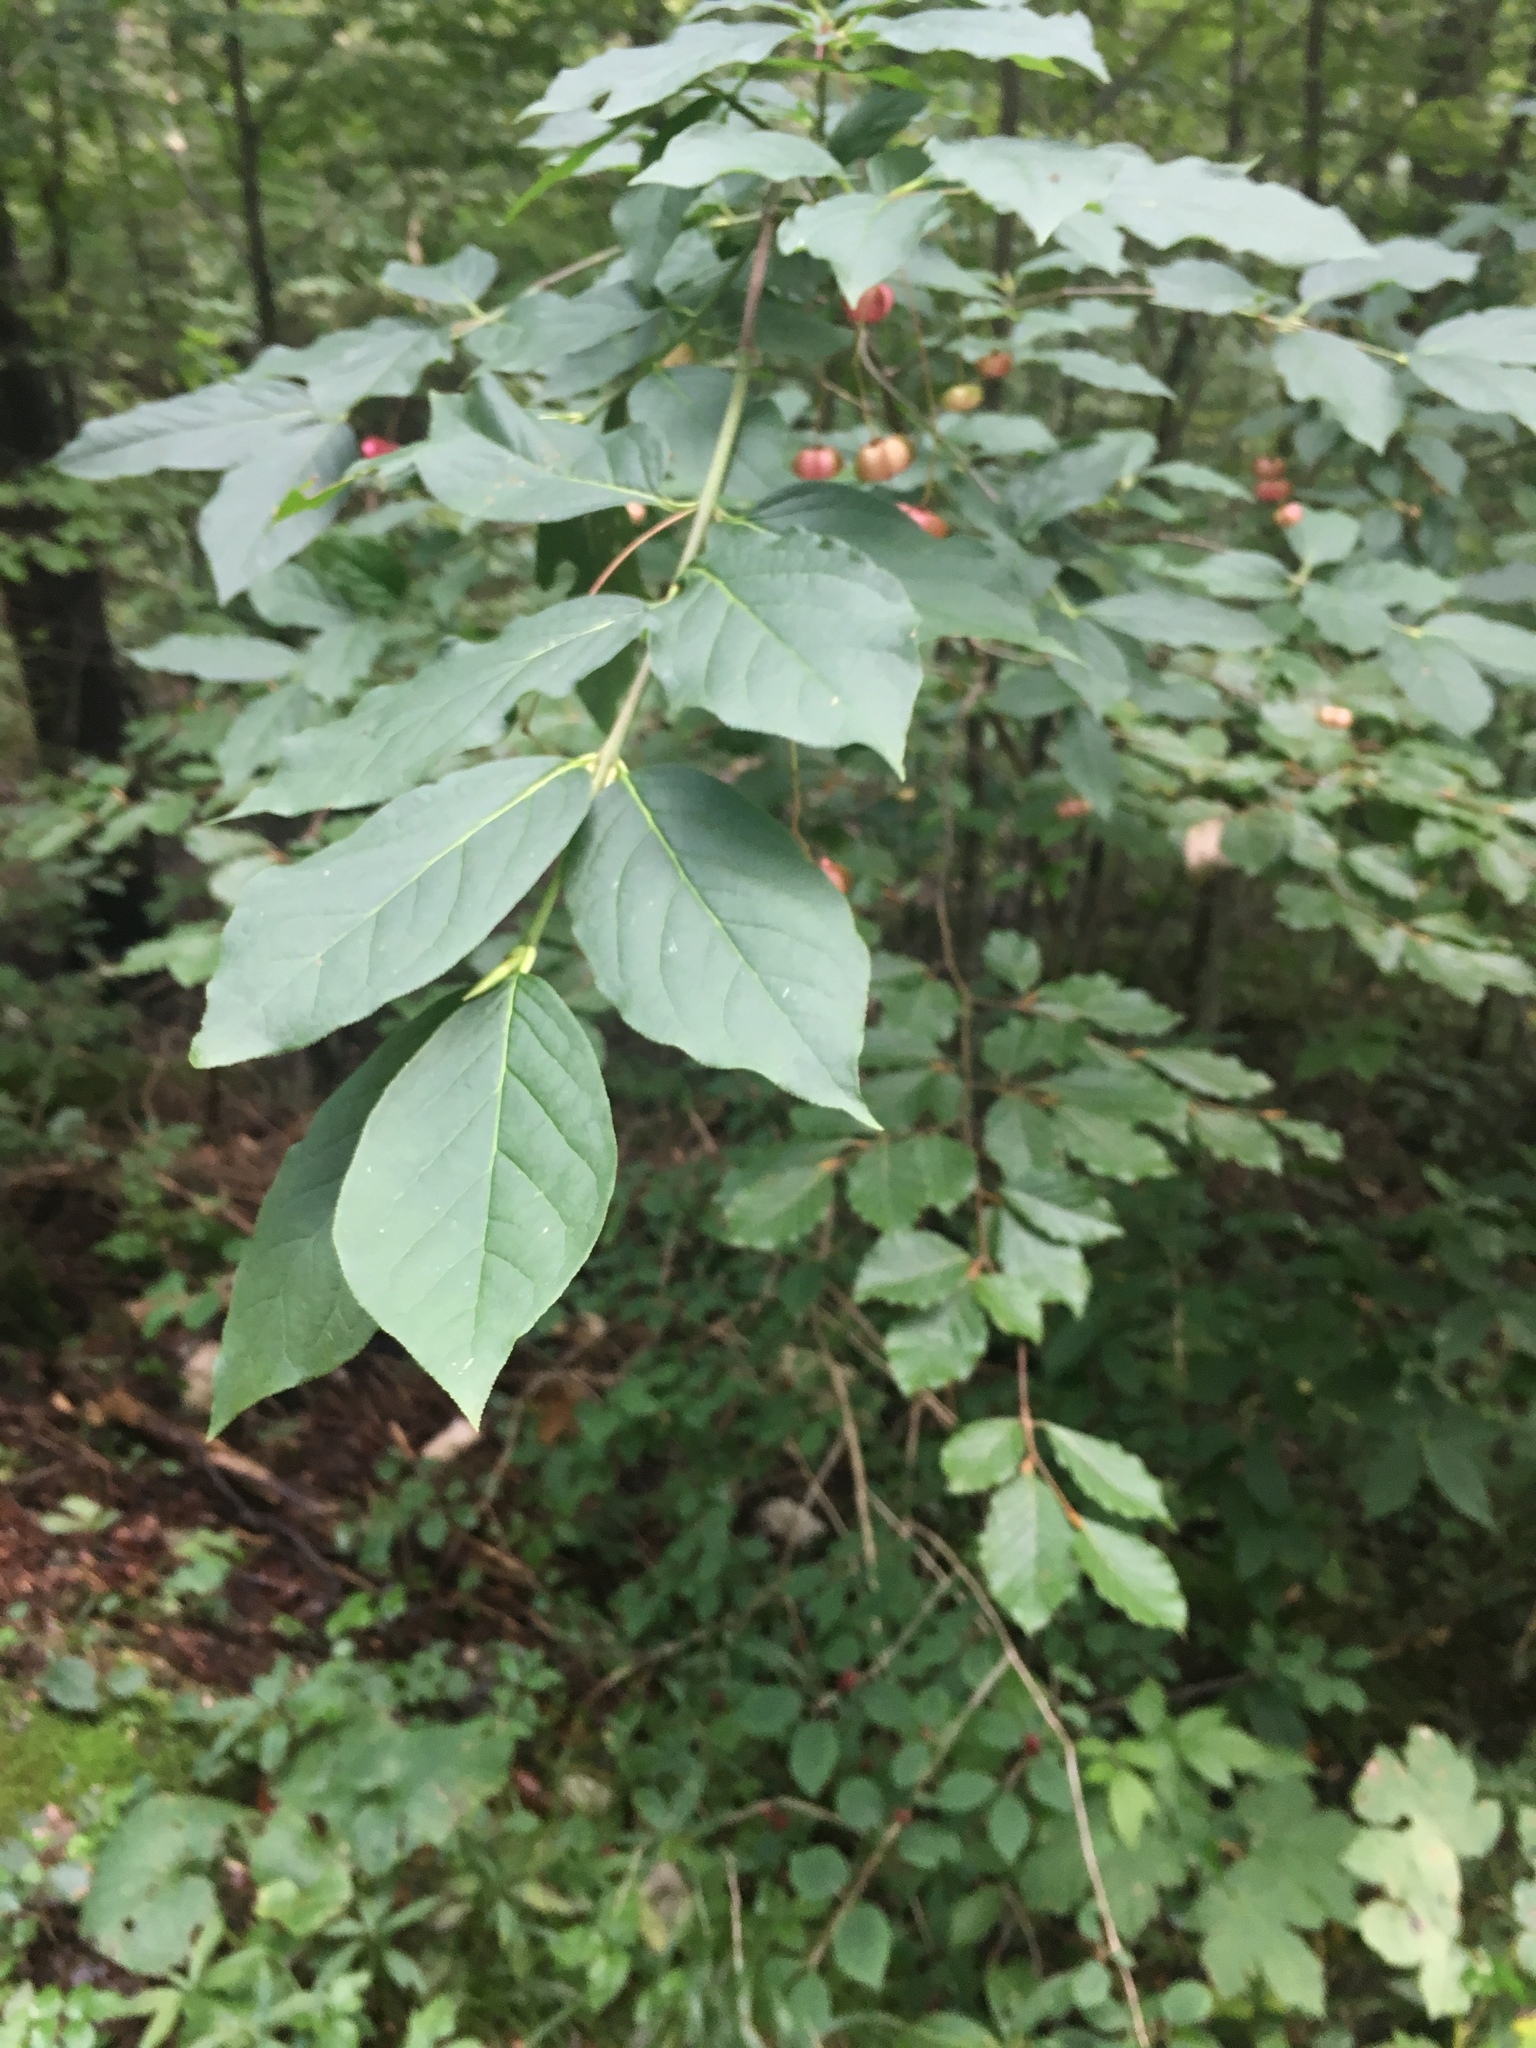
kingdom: Plantae
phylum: Tracheophyta
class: Magnoliopsida
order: Celastrales
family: Celastraceae
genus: Euonymus
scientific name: Euonymus europaeus
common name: Spindle
